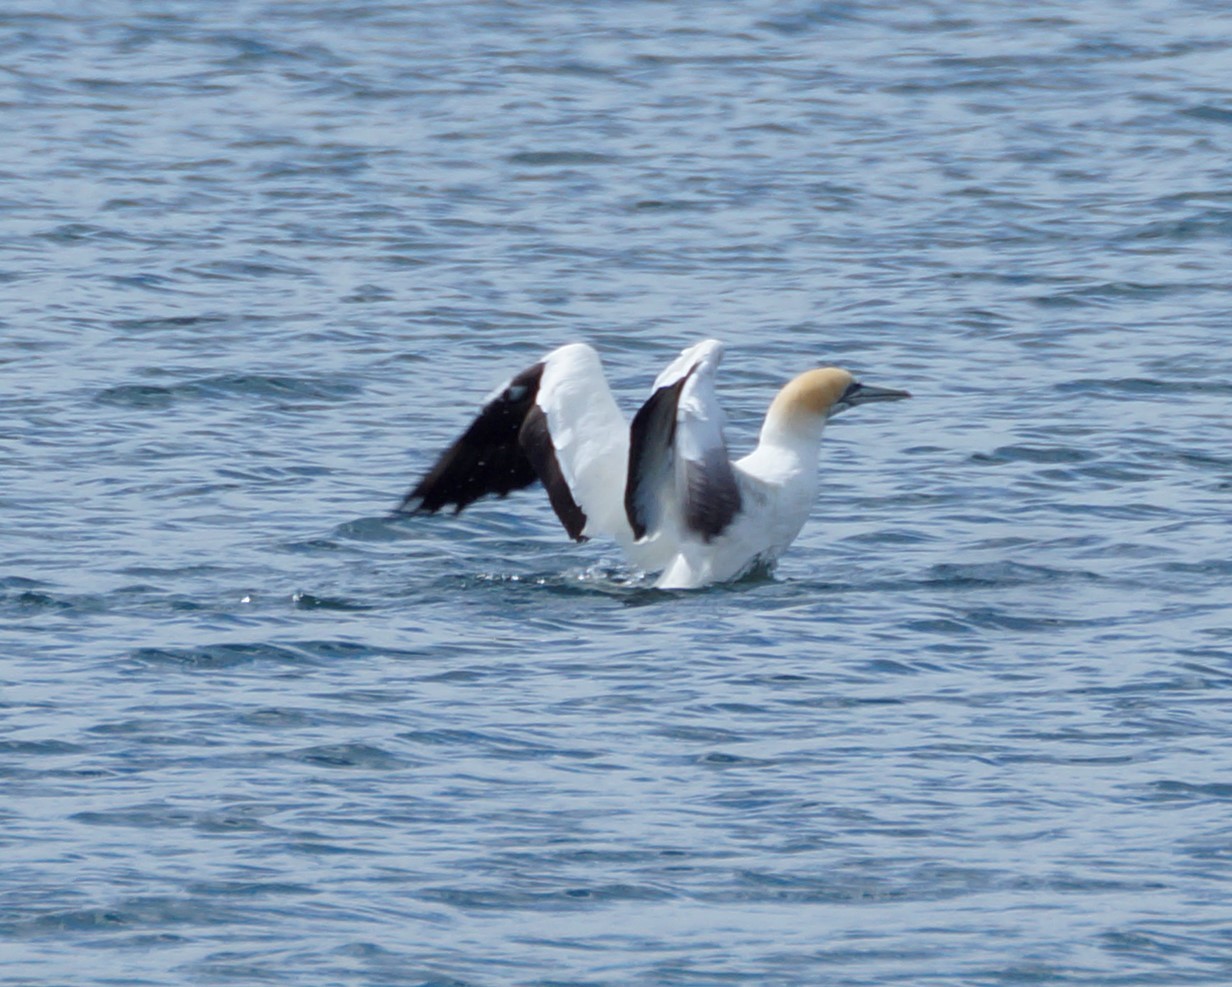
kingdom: Animalia
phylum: Chordata
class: Aves
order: Suliformes
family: Sulidae
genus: Morus
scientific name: Morus serrator
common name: Australasian gannet
